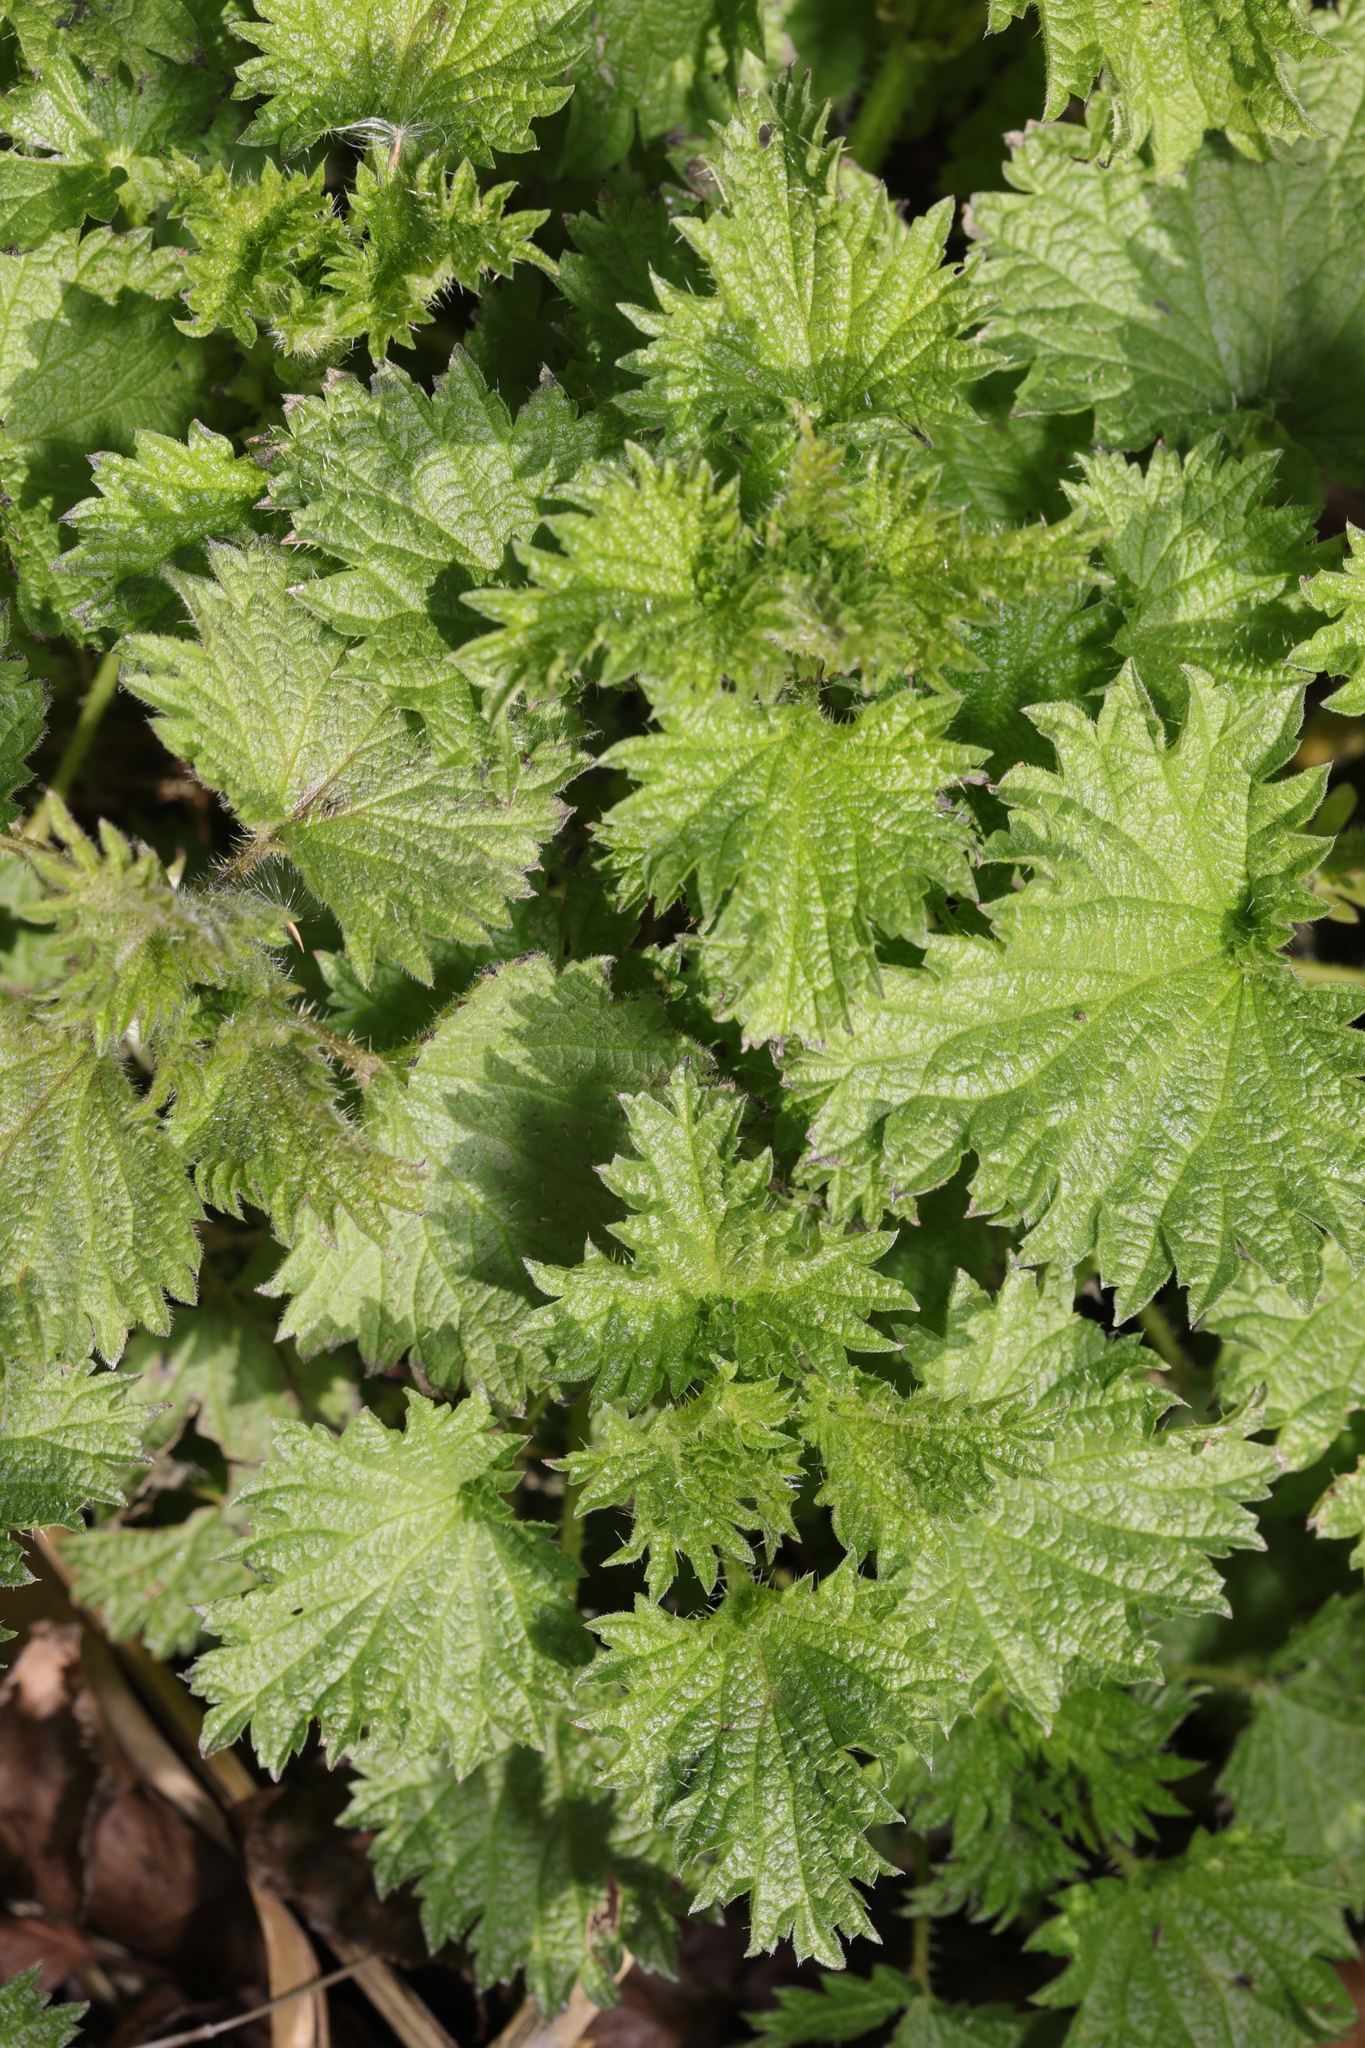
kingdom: Plantae
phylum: Tracheophyta
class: Magnoliopsida
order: Rosales
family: Urticaceae
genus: Urtica
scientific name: Urtica dioica
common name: Common nettle
